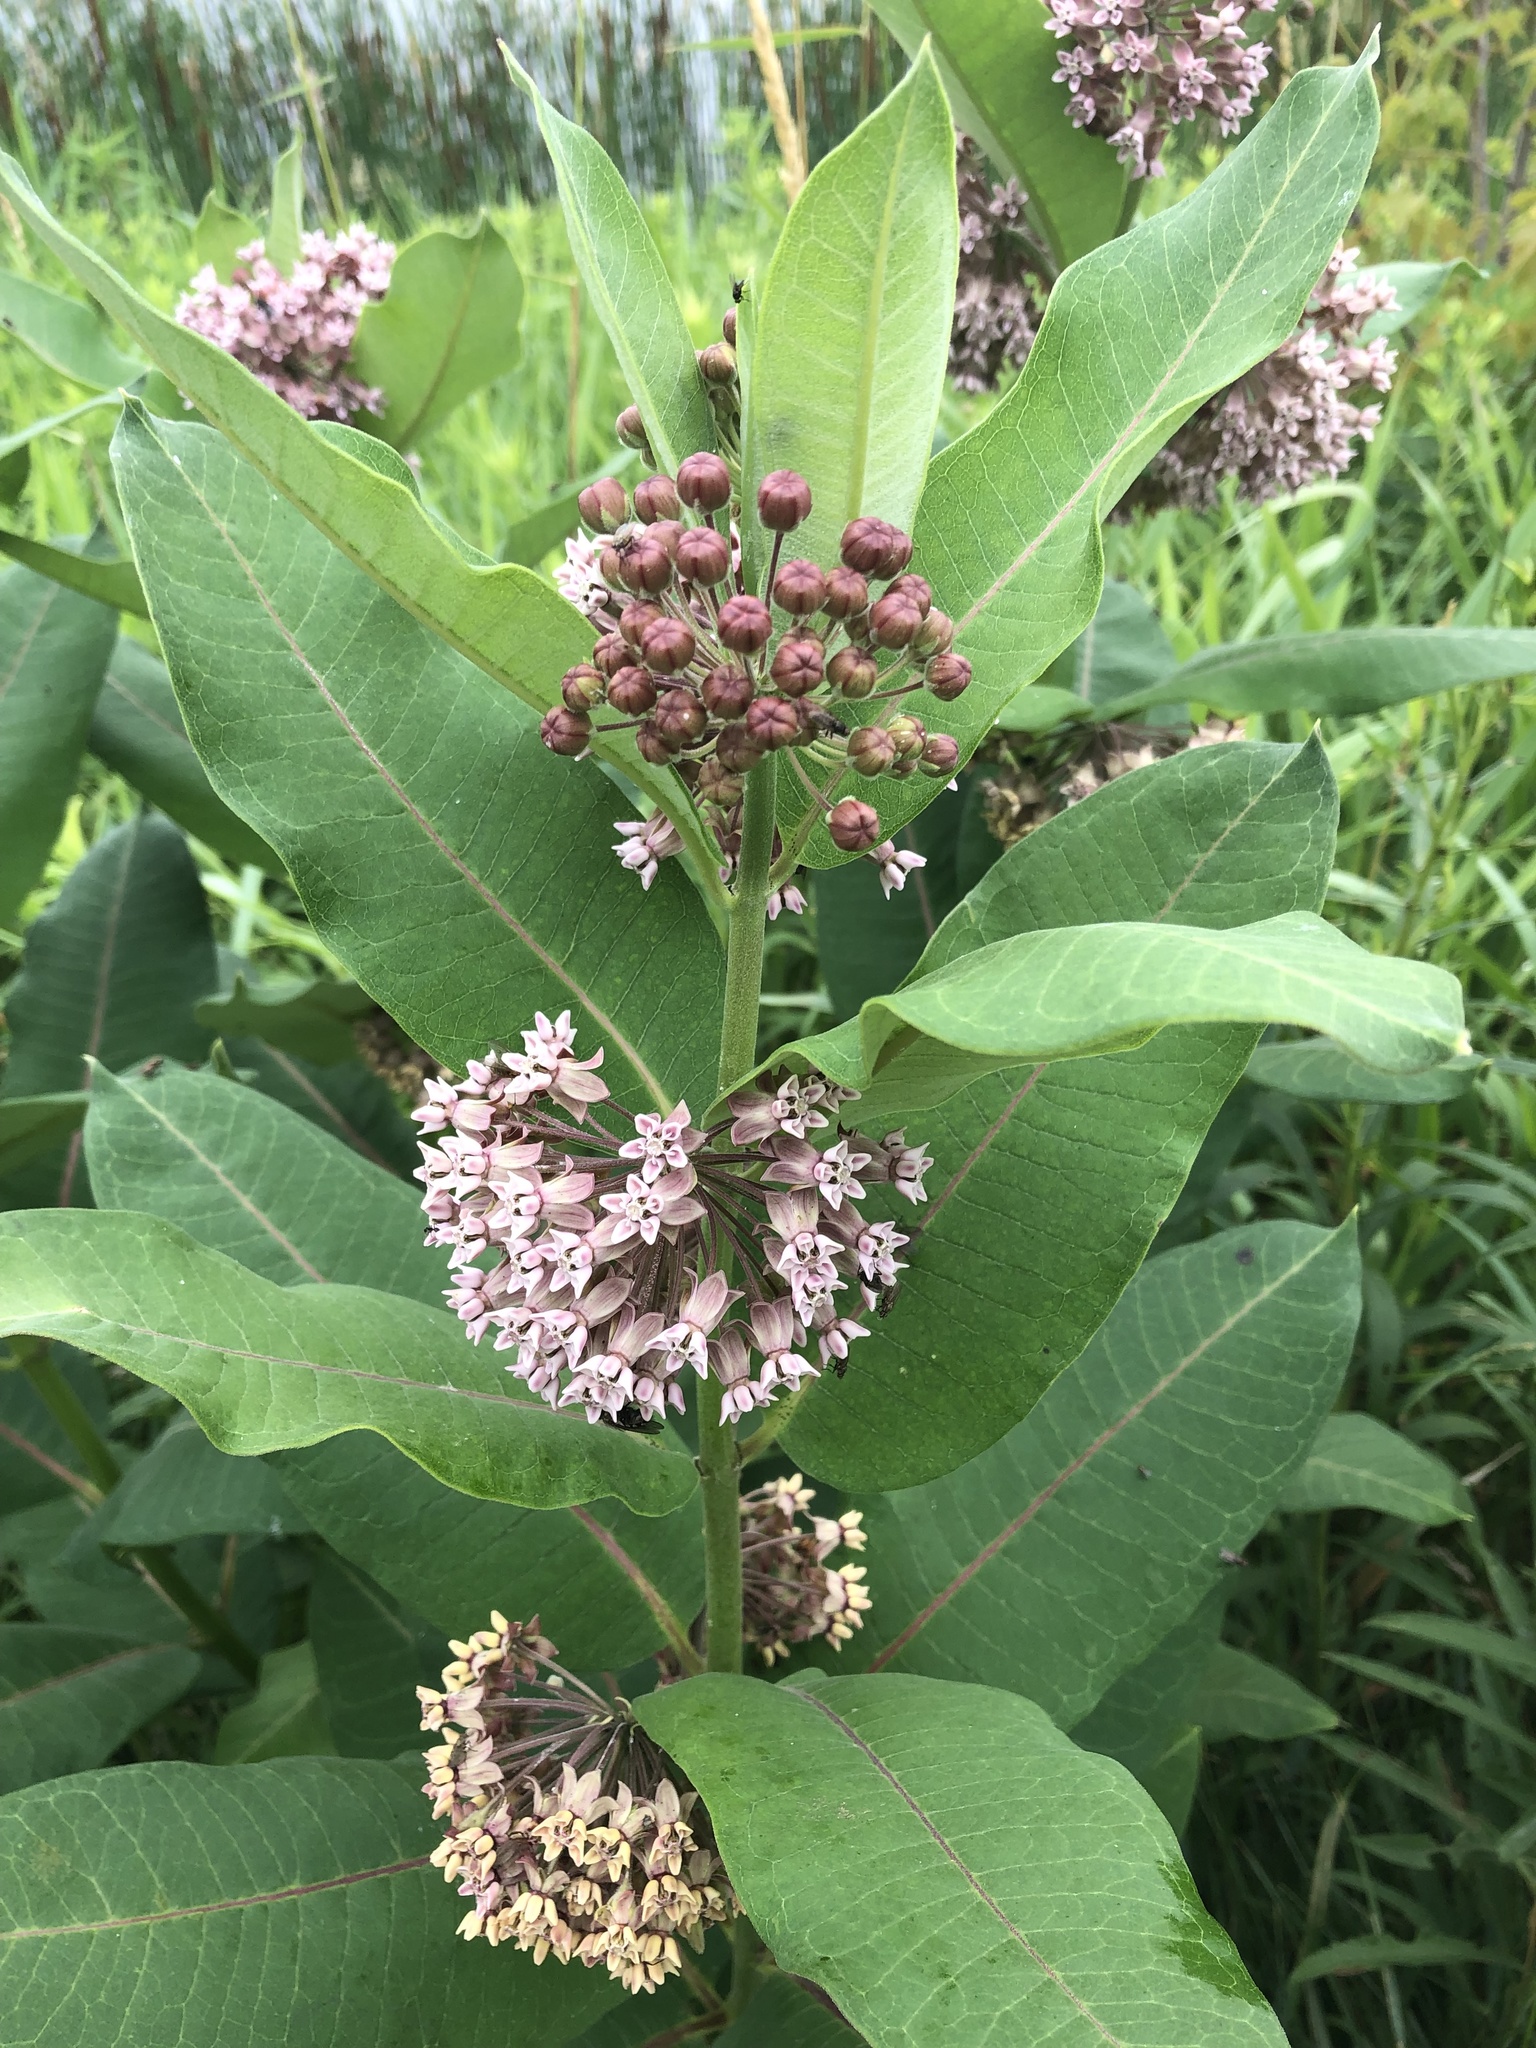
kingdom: Plantae
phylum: Tracheophyta
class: Magnoliopsida
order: Gentianales
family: Apocynaceae
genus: Asclepias
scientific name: Asclepias syriaca
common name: Common milkweed
